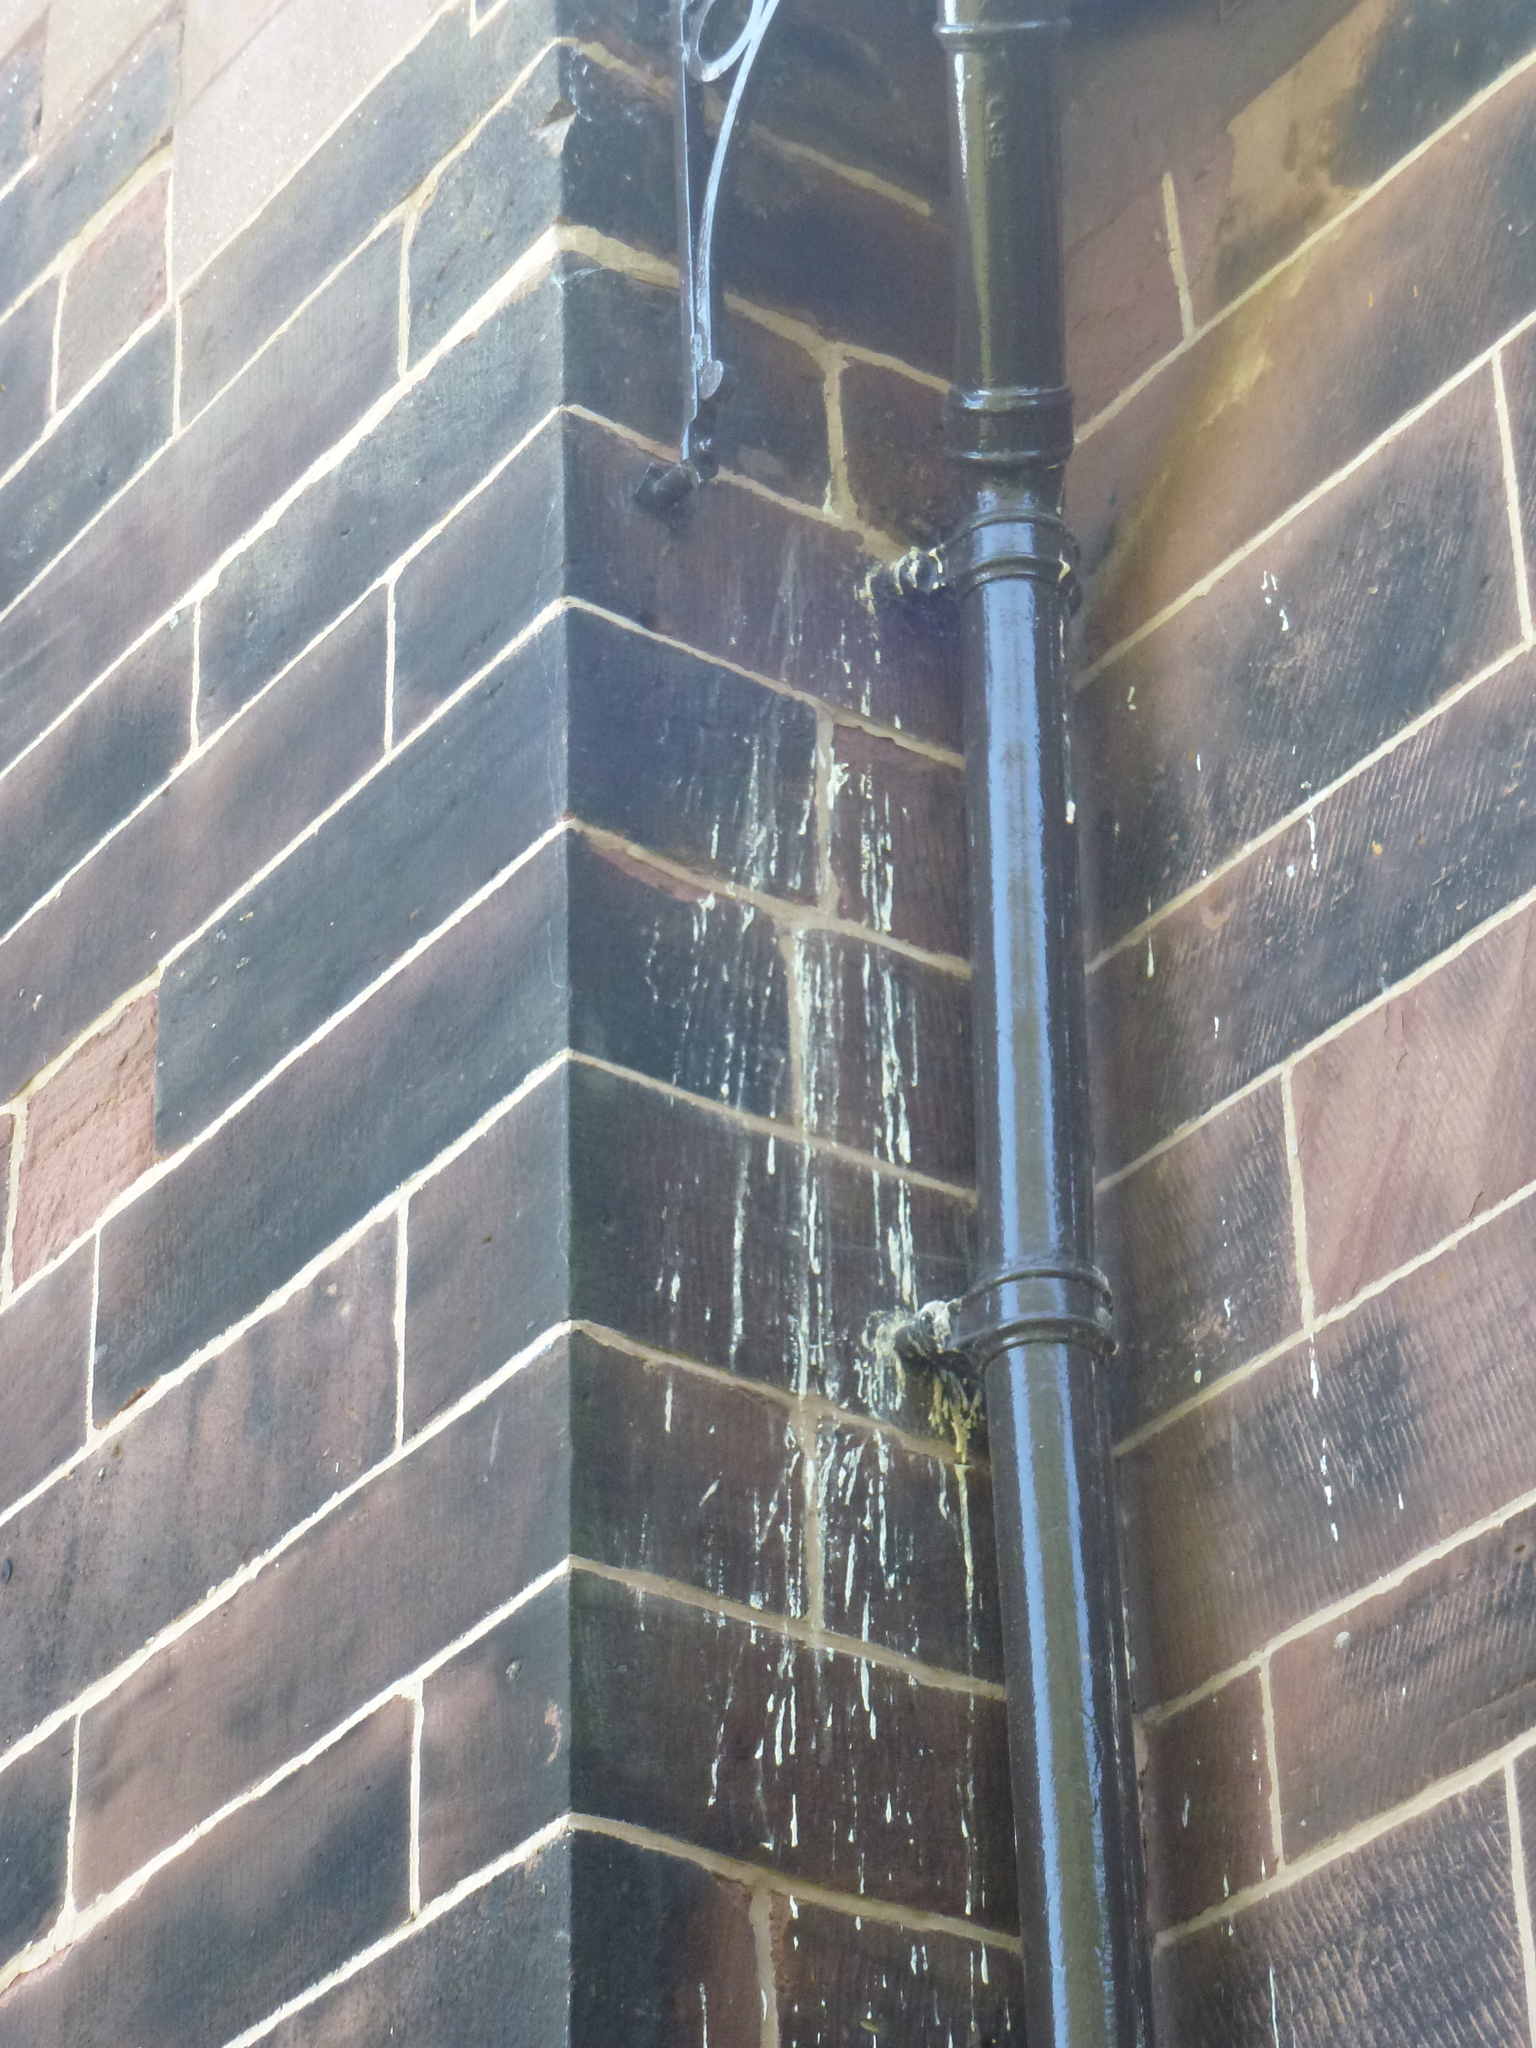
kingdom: Animalia
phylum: Chordata
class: Aves
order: Strigiformes
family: Strigidae
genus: Athene
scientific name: Athene noctua
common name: Little owl
